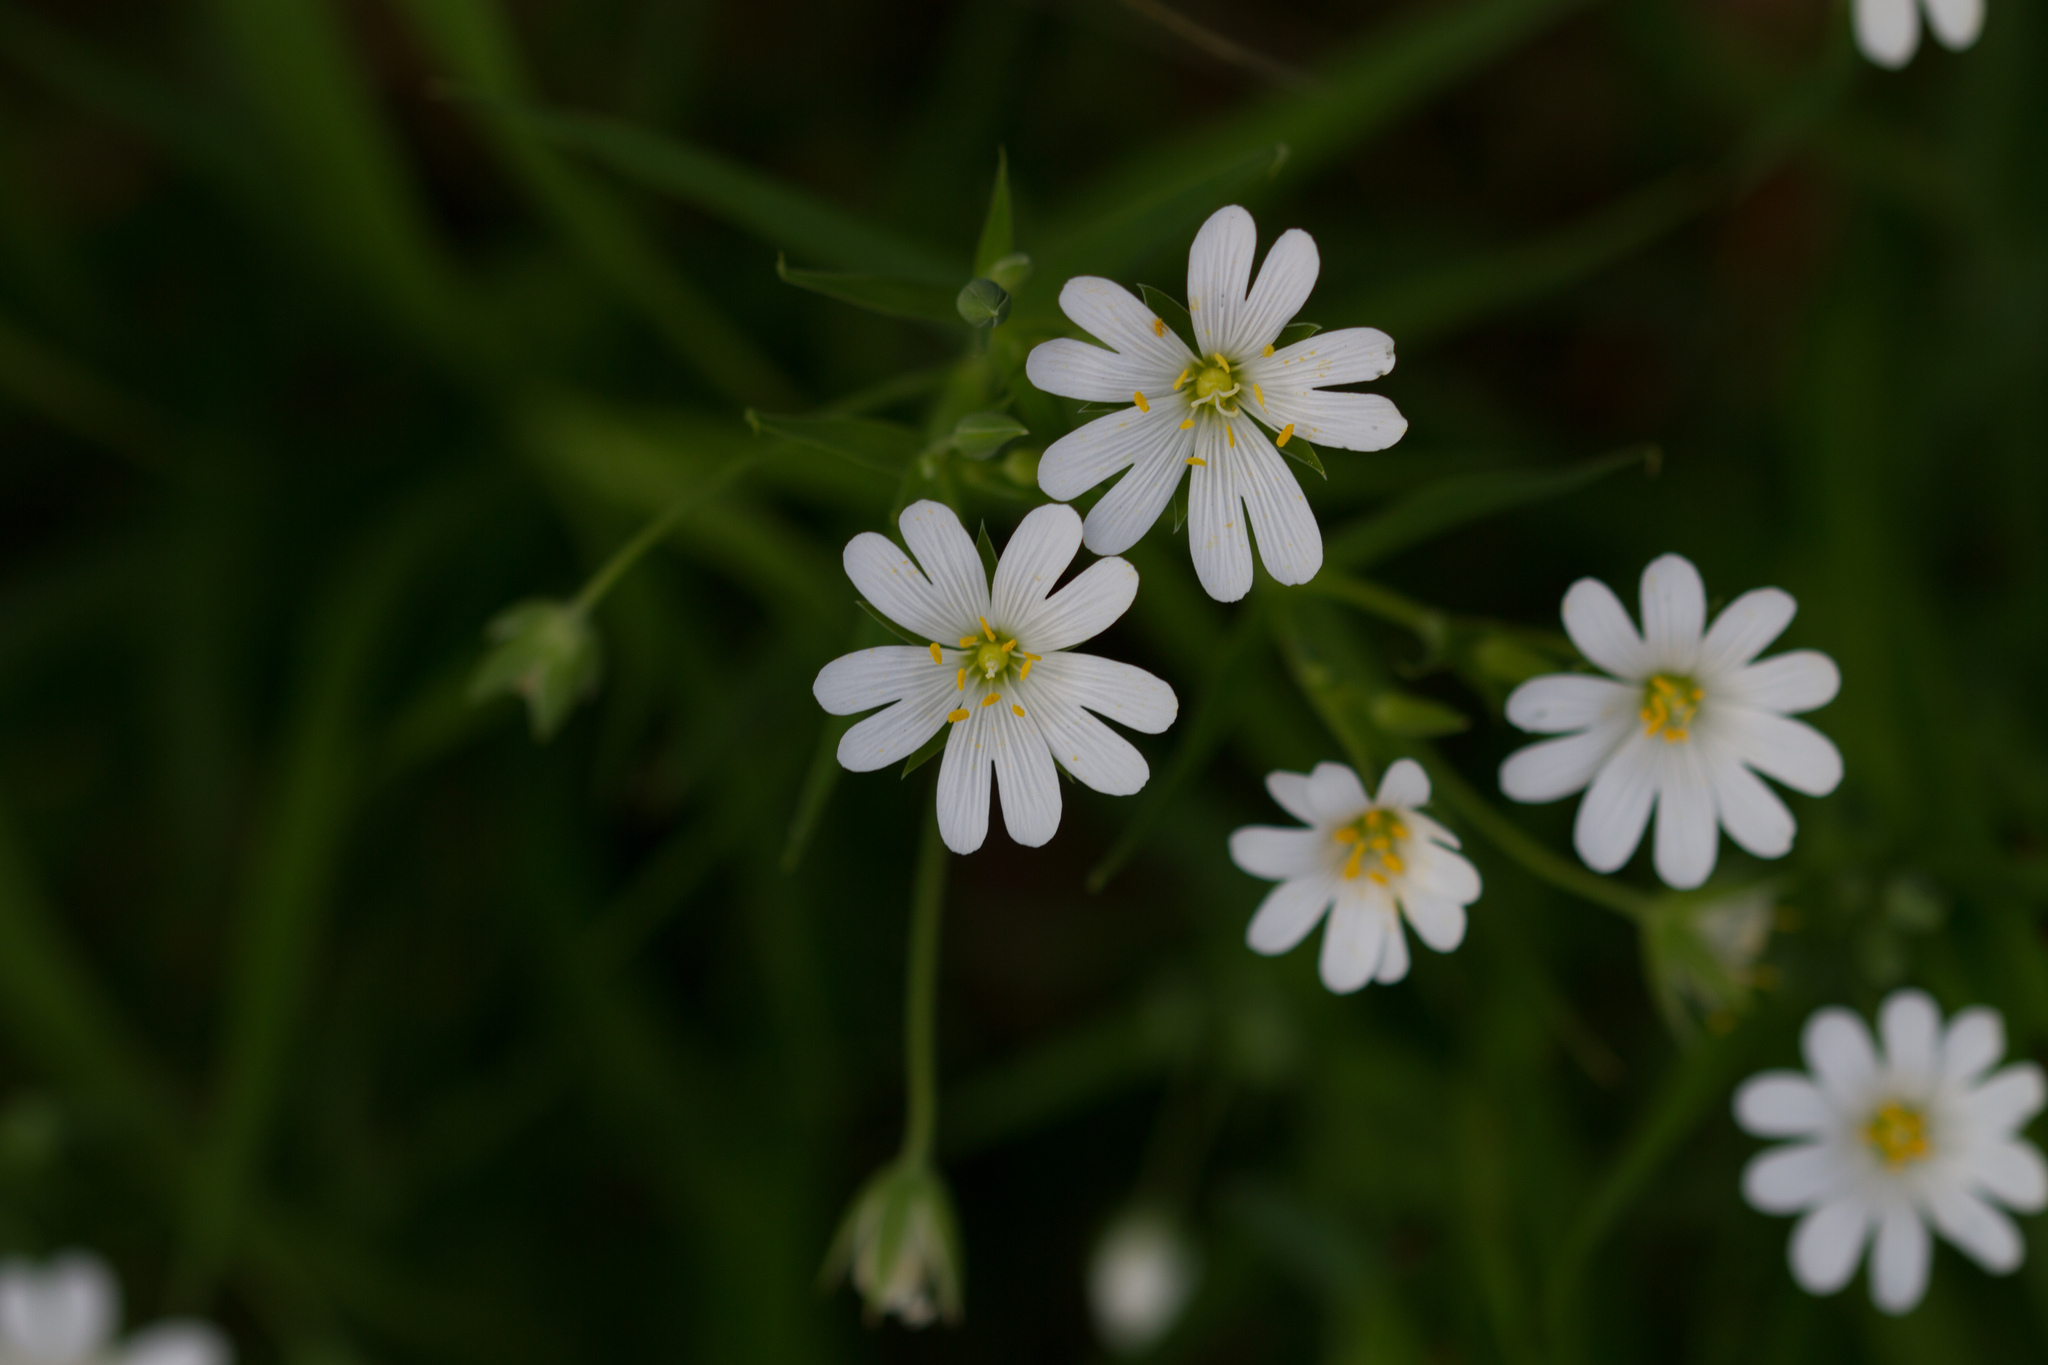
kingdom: Plantae
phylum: Tracheophyta
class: Magnoliopsida
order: Caryophyllales
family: Caryophyllaceae
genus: Rabelera
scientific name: Rabelera holostea
